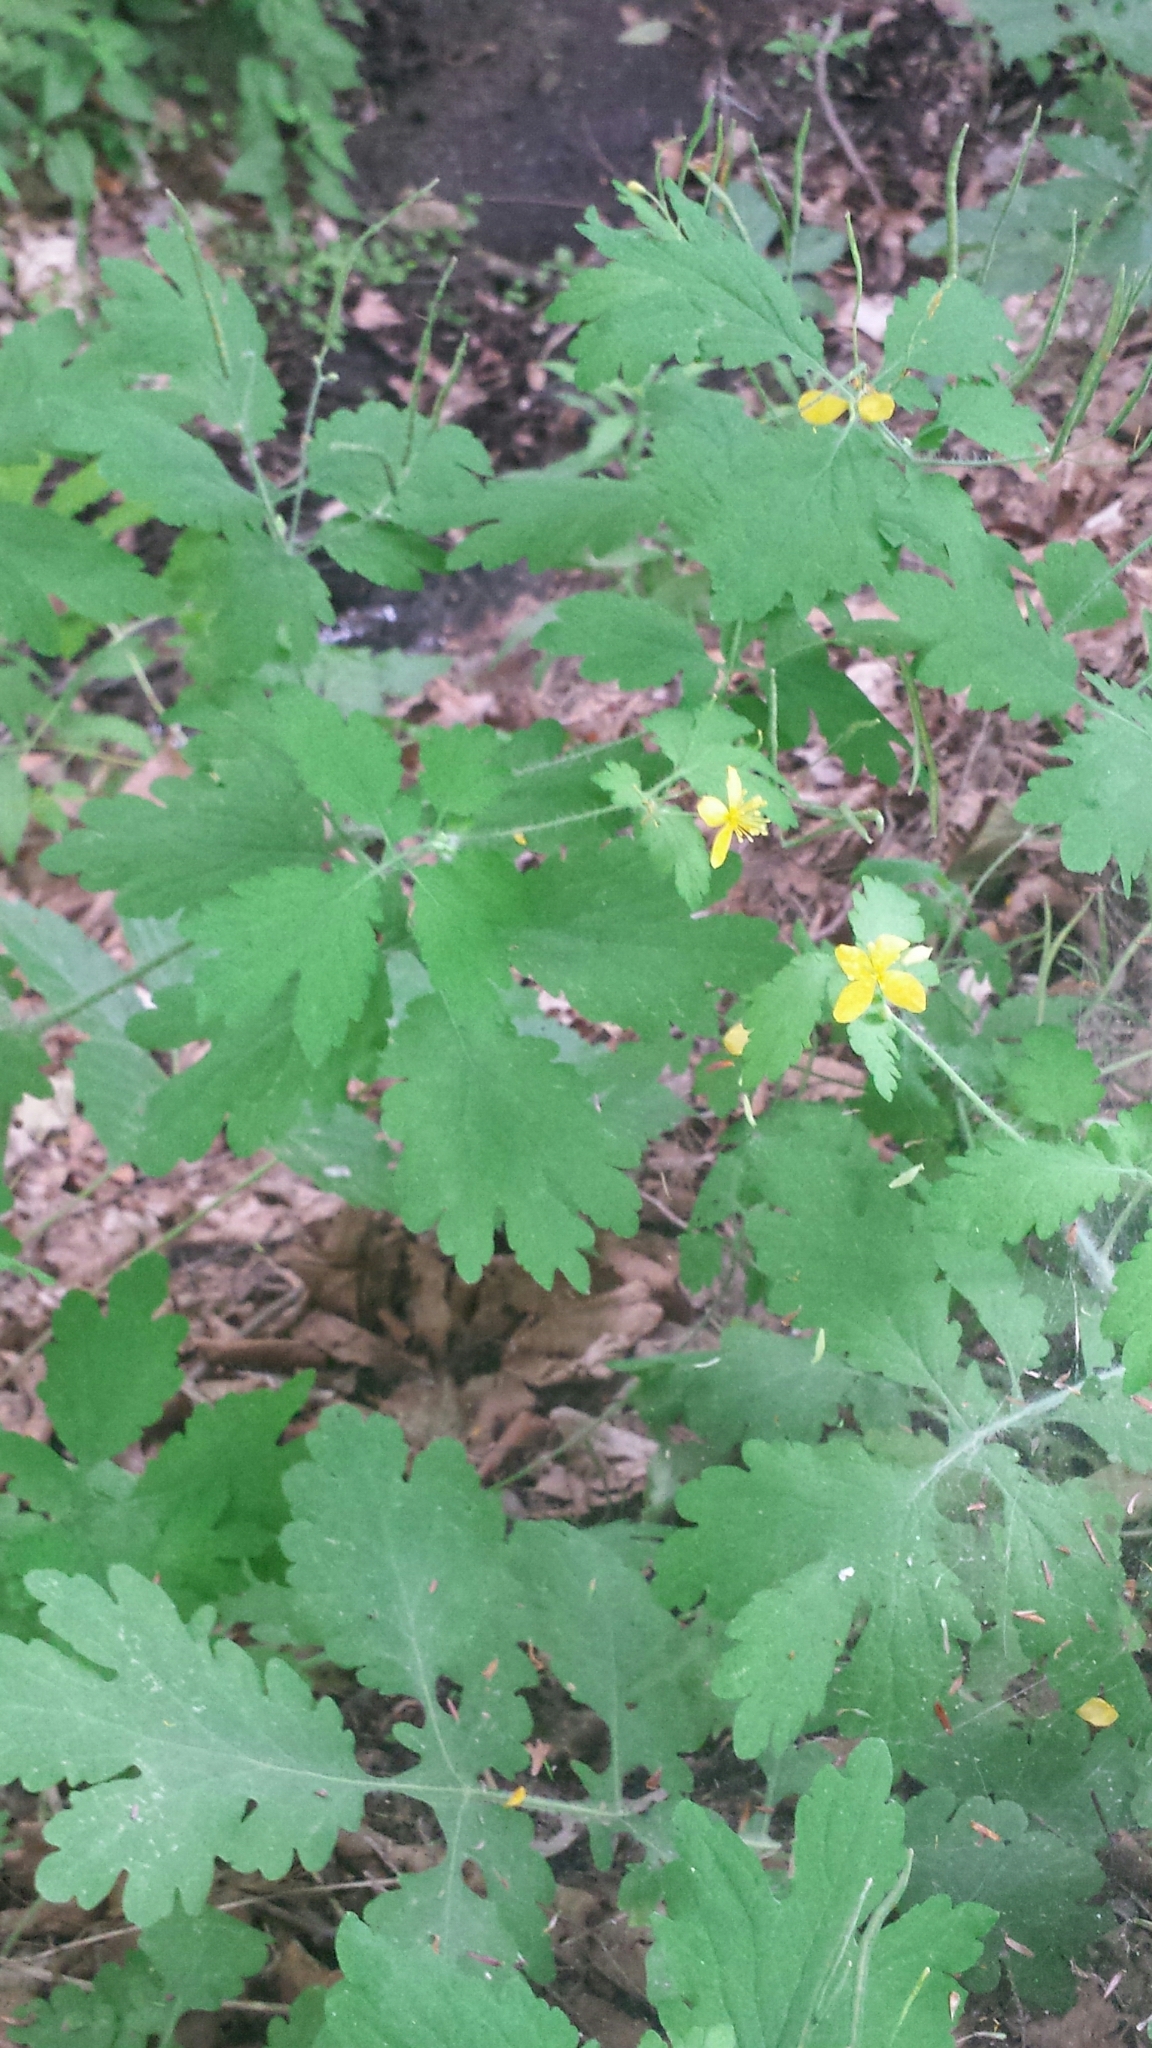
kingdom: Plantae
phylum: Tracheophyta
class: Magnoliopsida
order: Ranunculales
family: Papaveraceae
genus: Chelidonium
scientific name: Chelidonium majus
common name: Greater celandine
